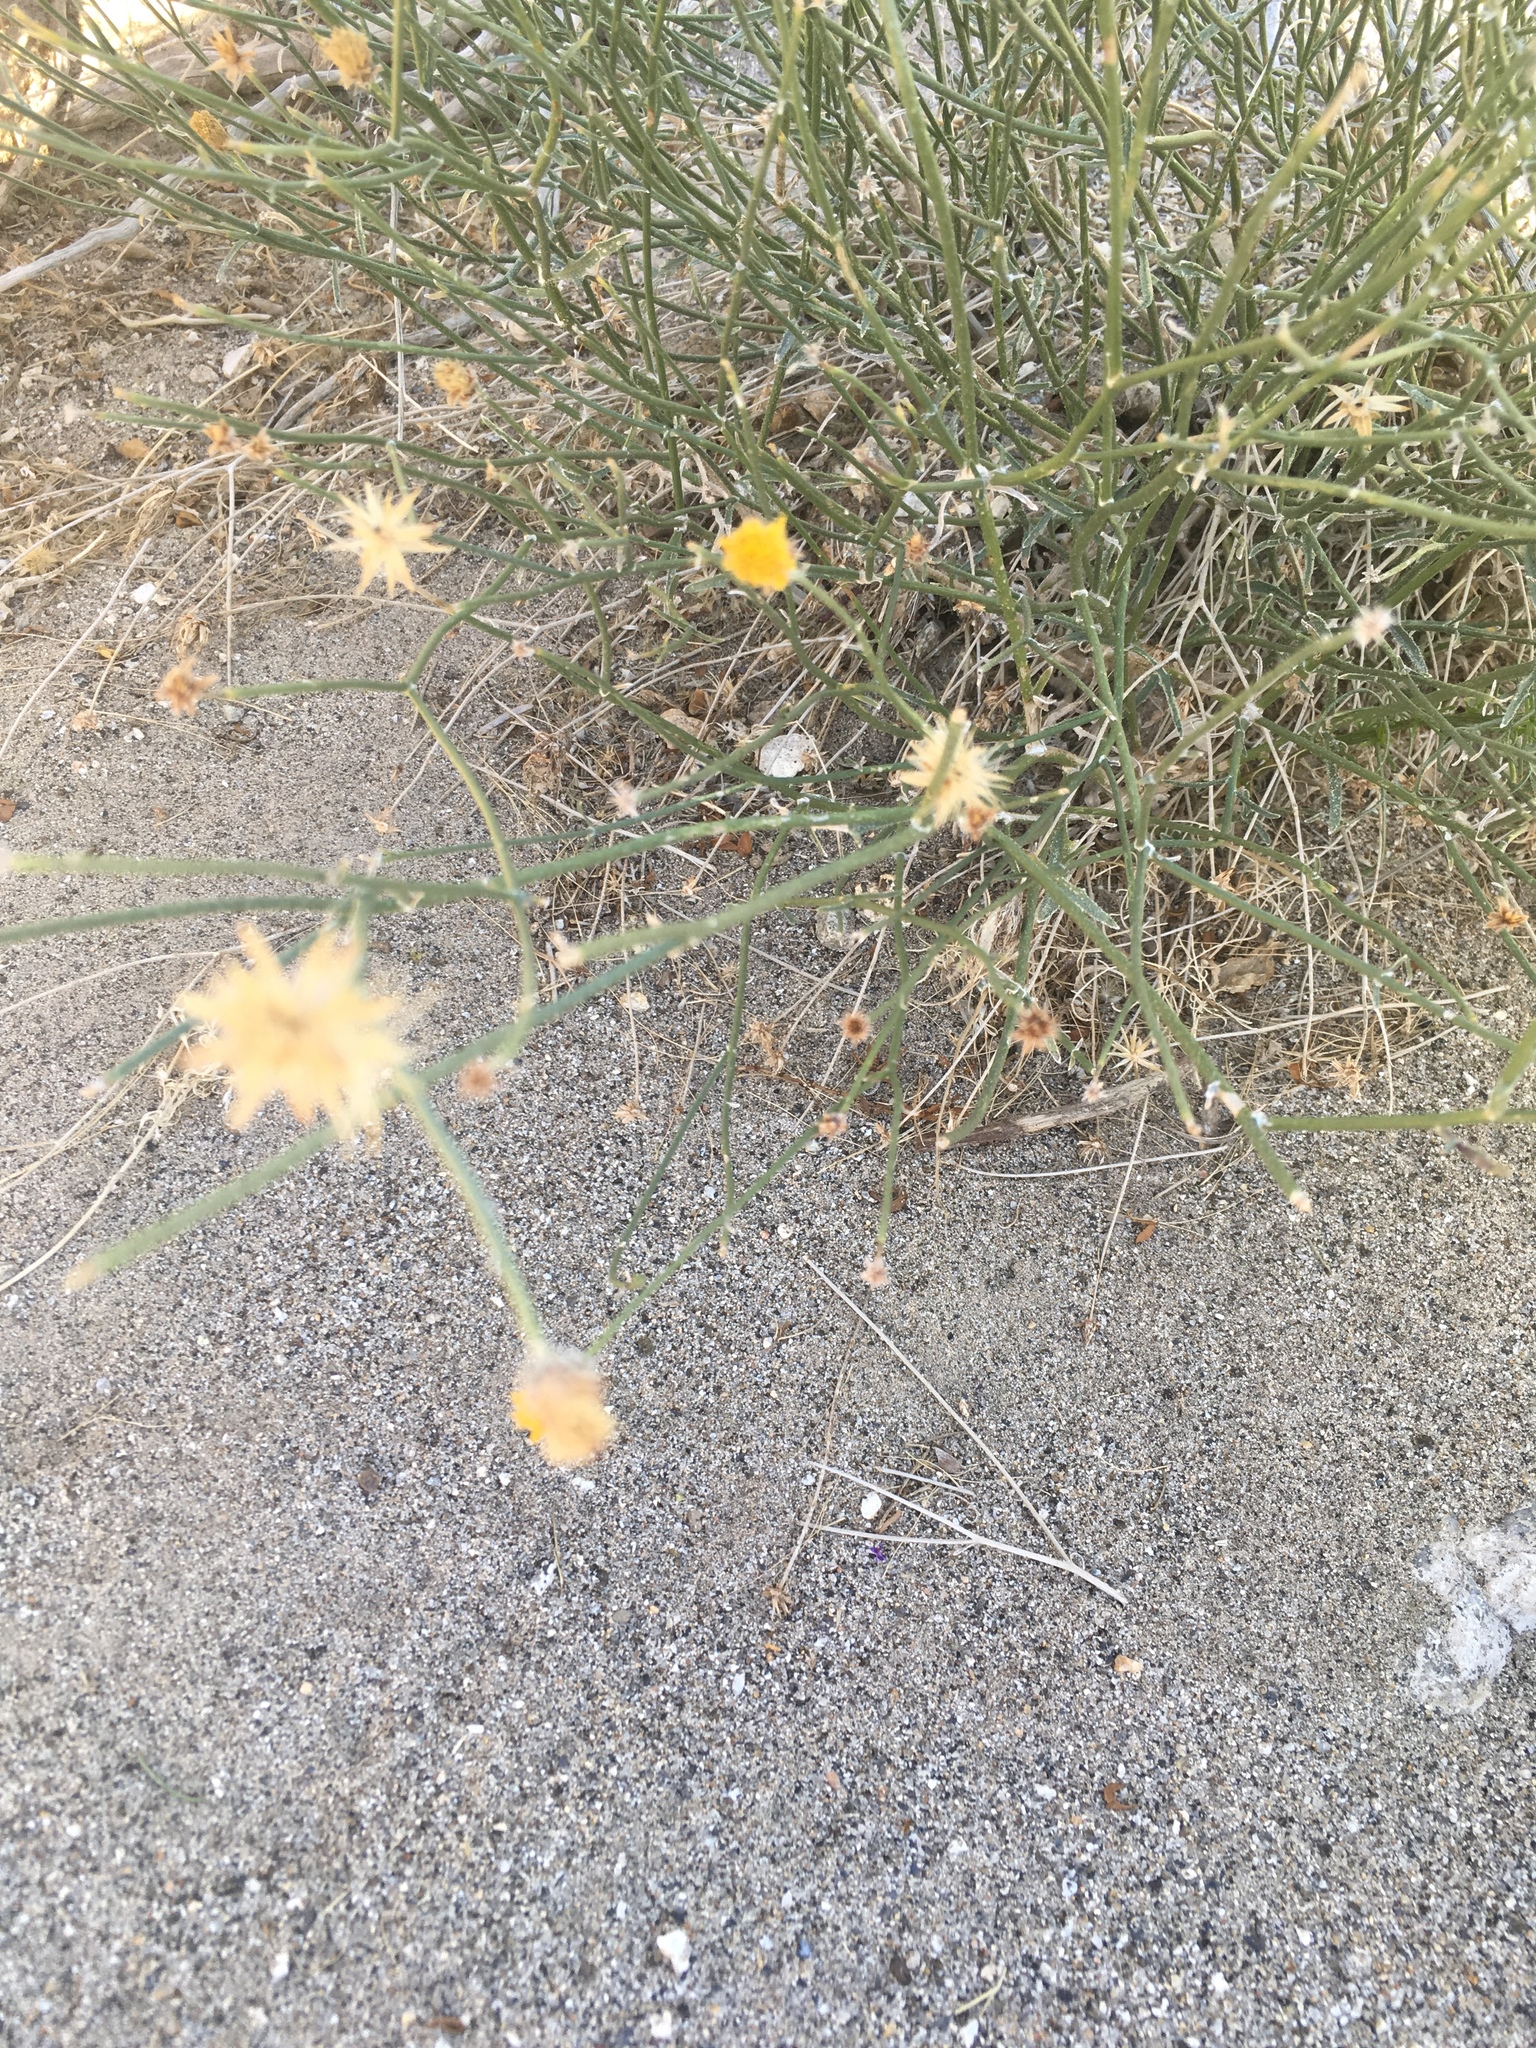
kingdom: Plantae
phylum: Tracheophyta
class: Magnoliopsida
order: Asterales
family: Asteraceae
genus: Bebbia
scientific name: Bebbia juncea
